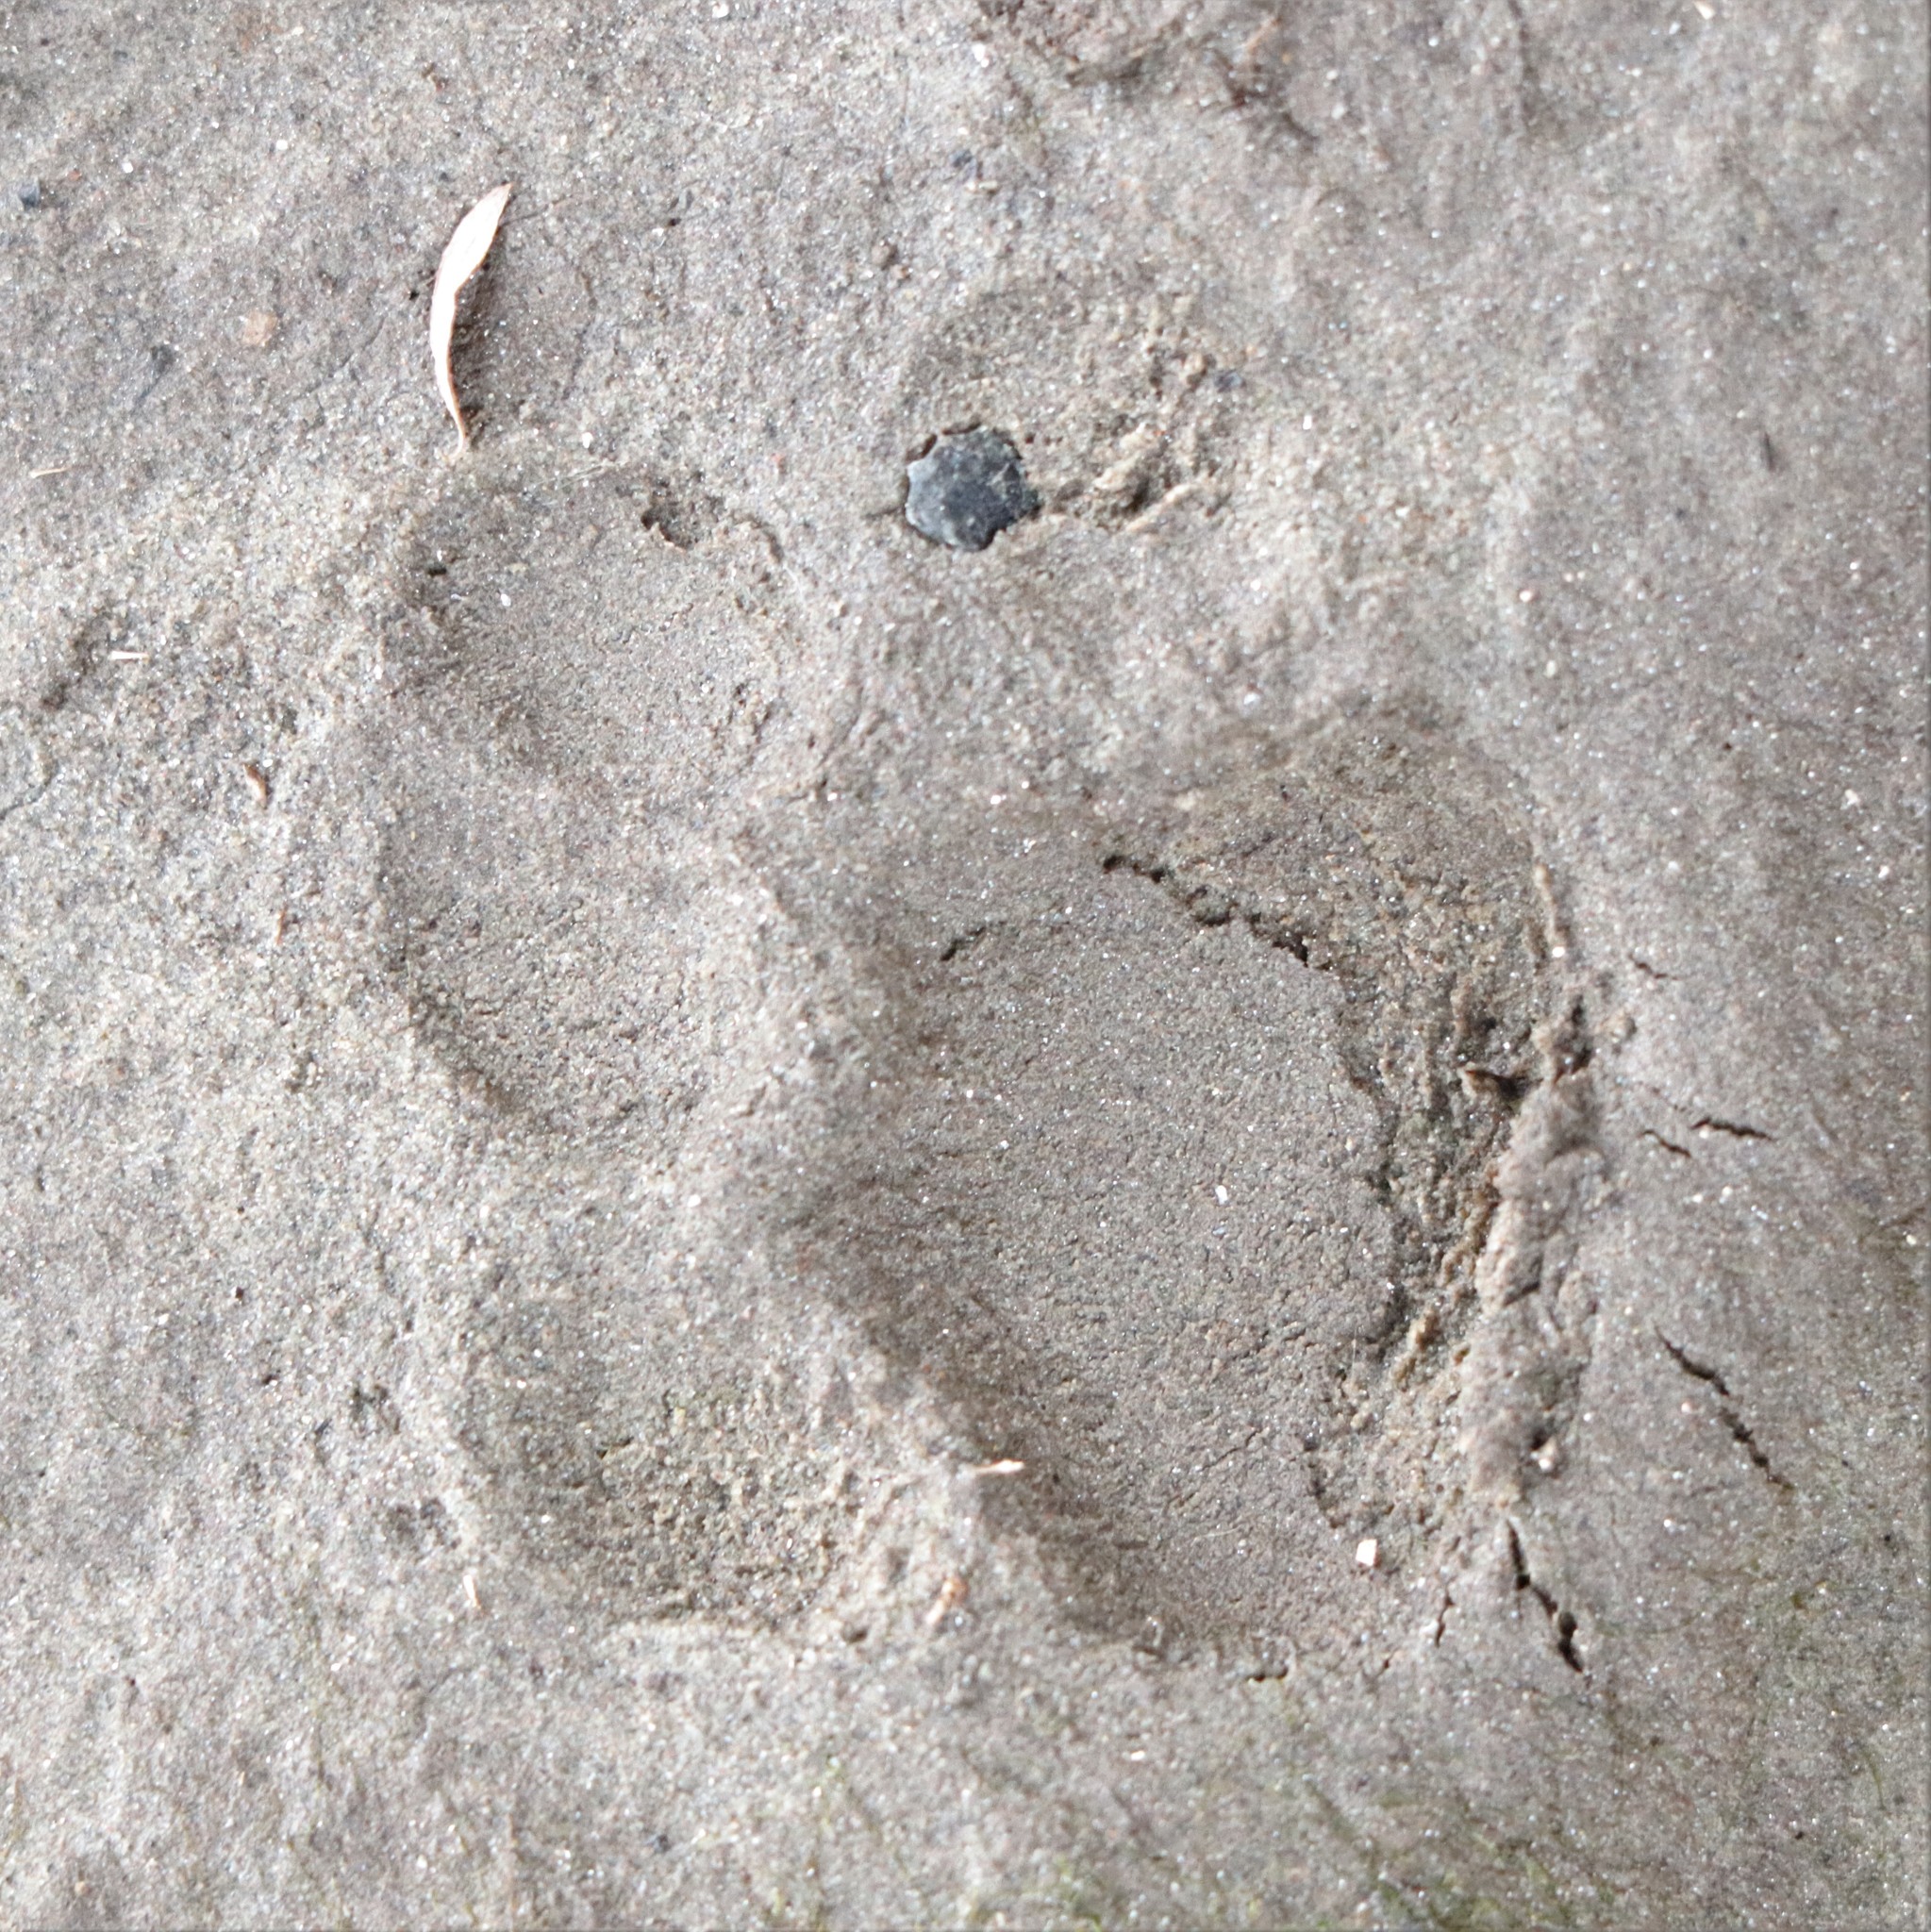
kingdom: Animalia
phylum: Chordata
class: Mammalia
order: Carnivora
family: Felidae
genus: Lynx
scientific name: Lynx rufus
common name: Bobcat
